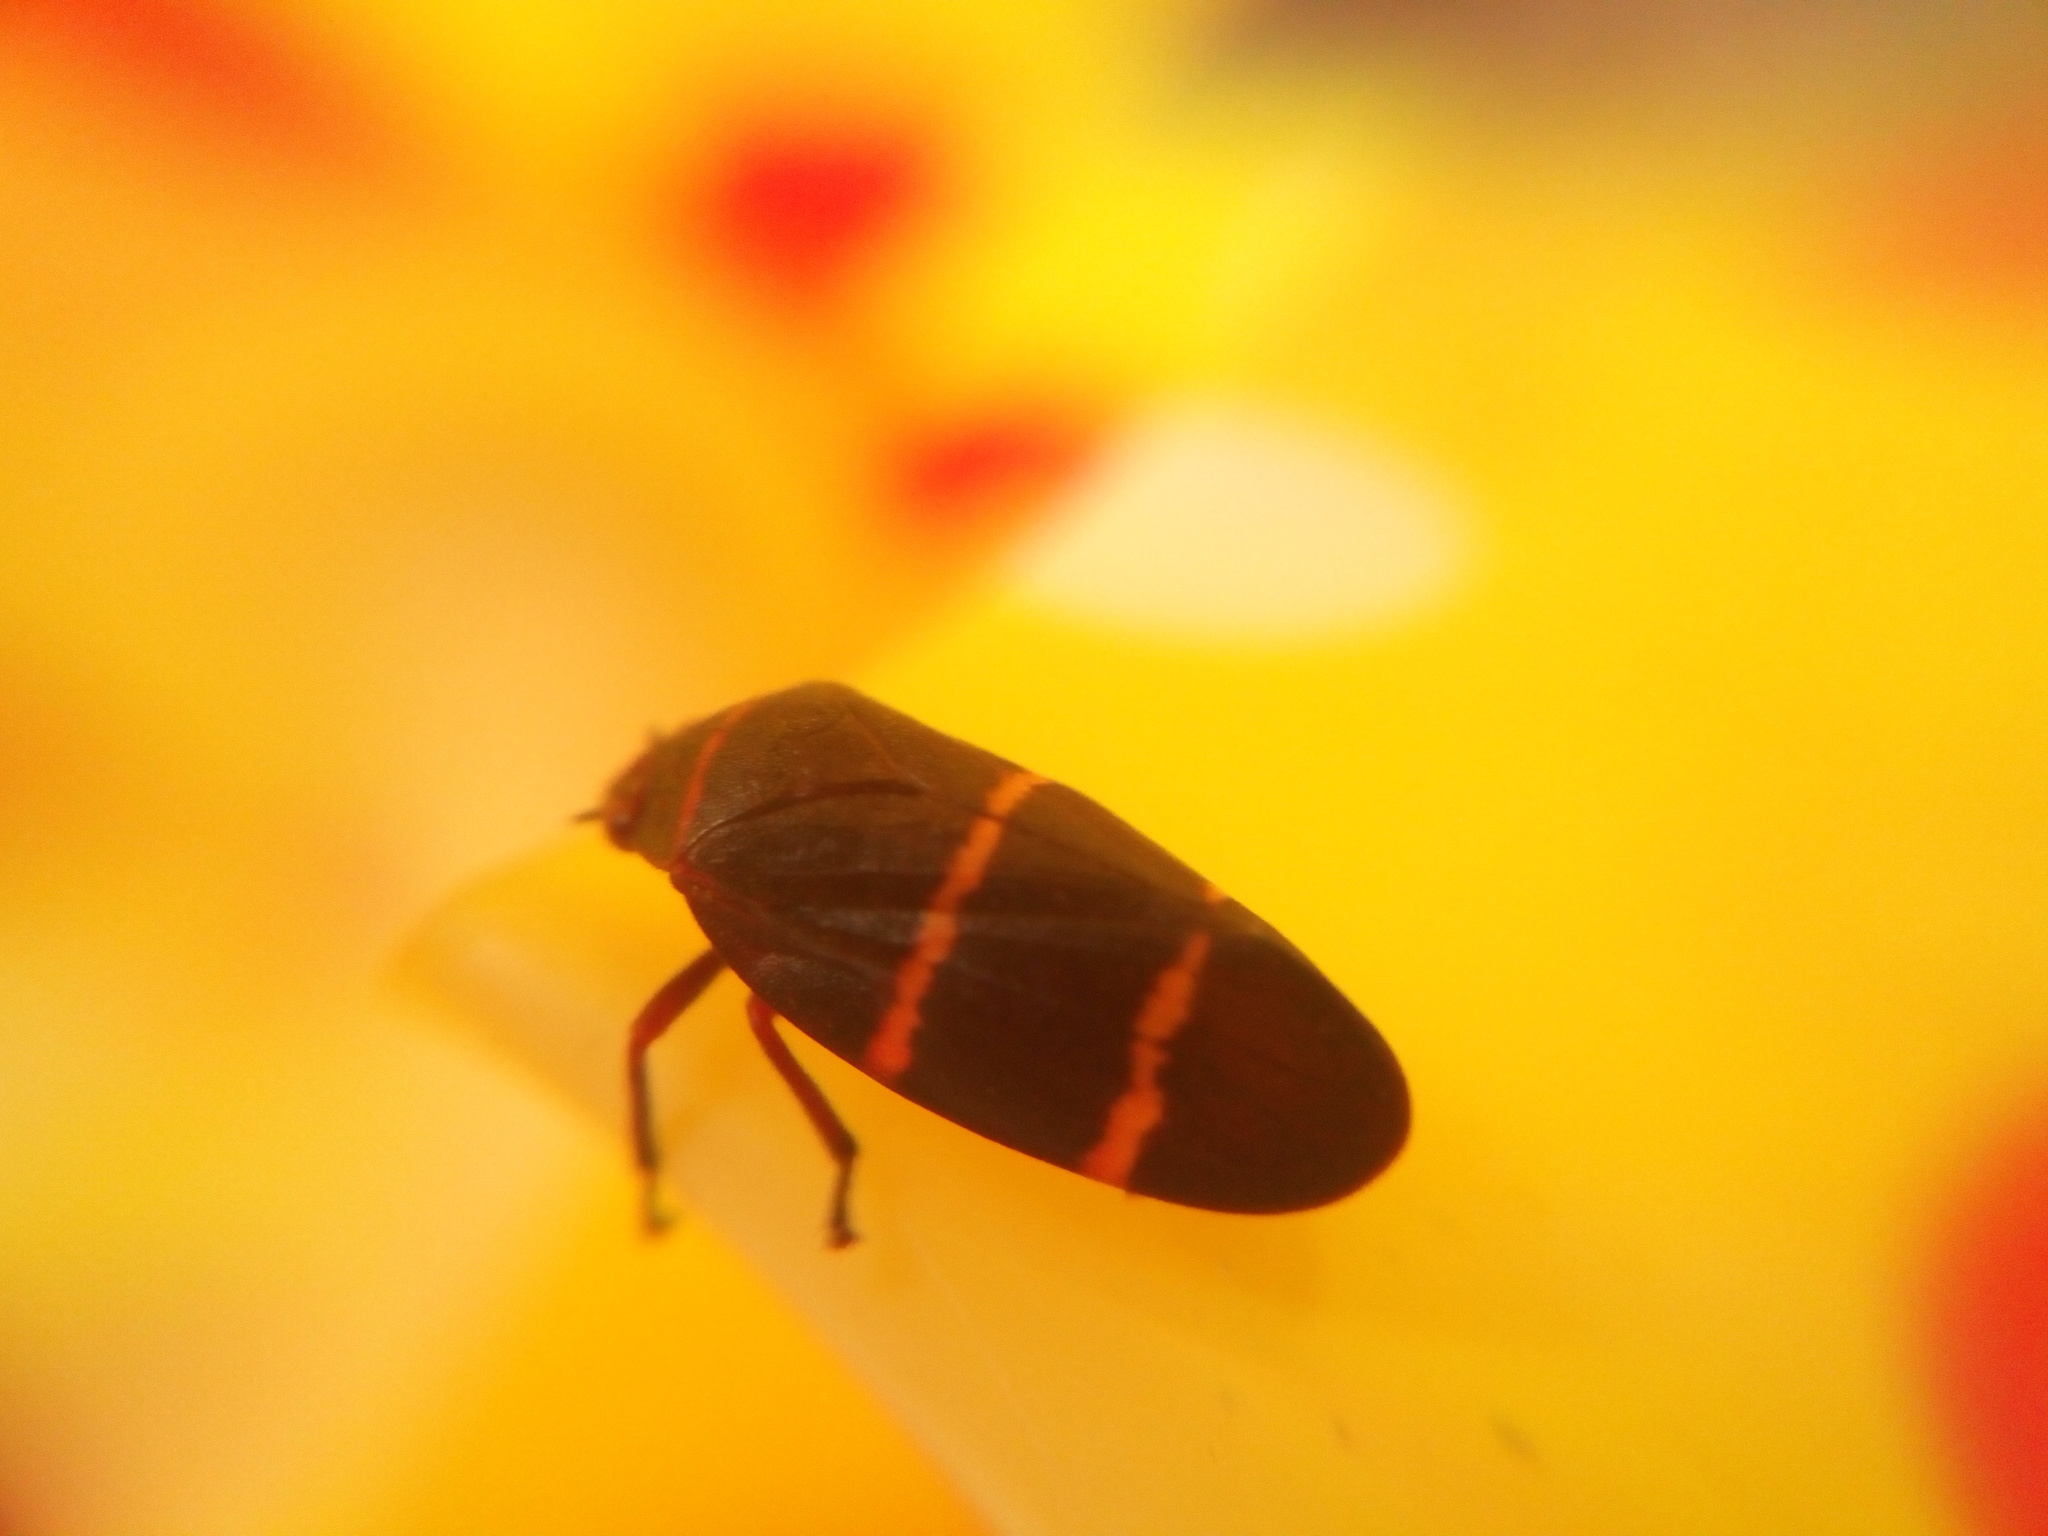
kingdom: Animalia
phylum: Arthropoda
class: Insecta
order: Hemiptera
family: Cercopidae
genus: Prosapia
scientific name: Prosapia bicincta
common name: Twolined spittlebug
